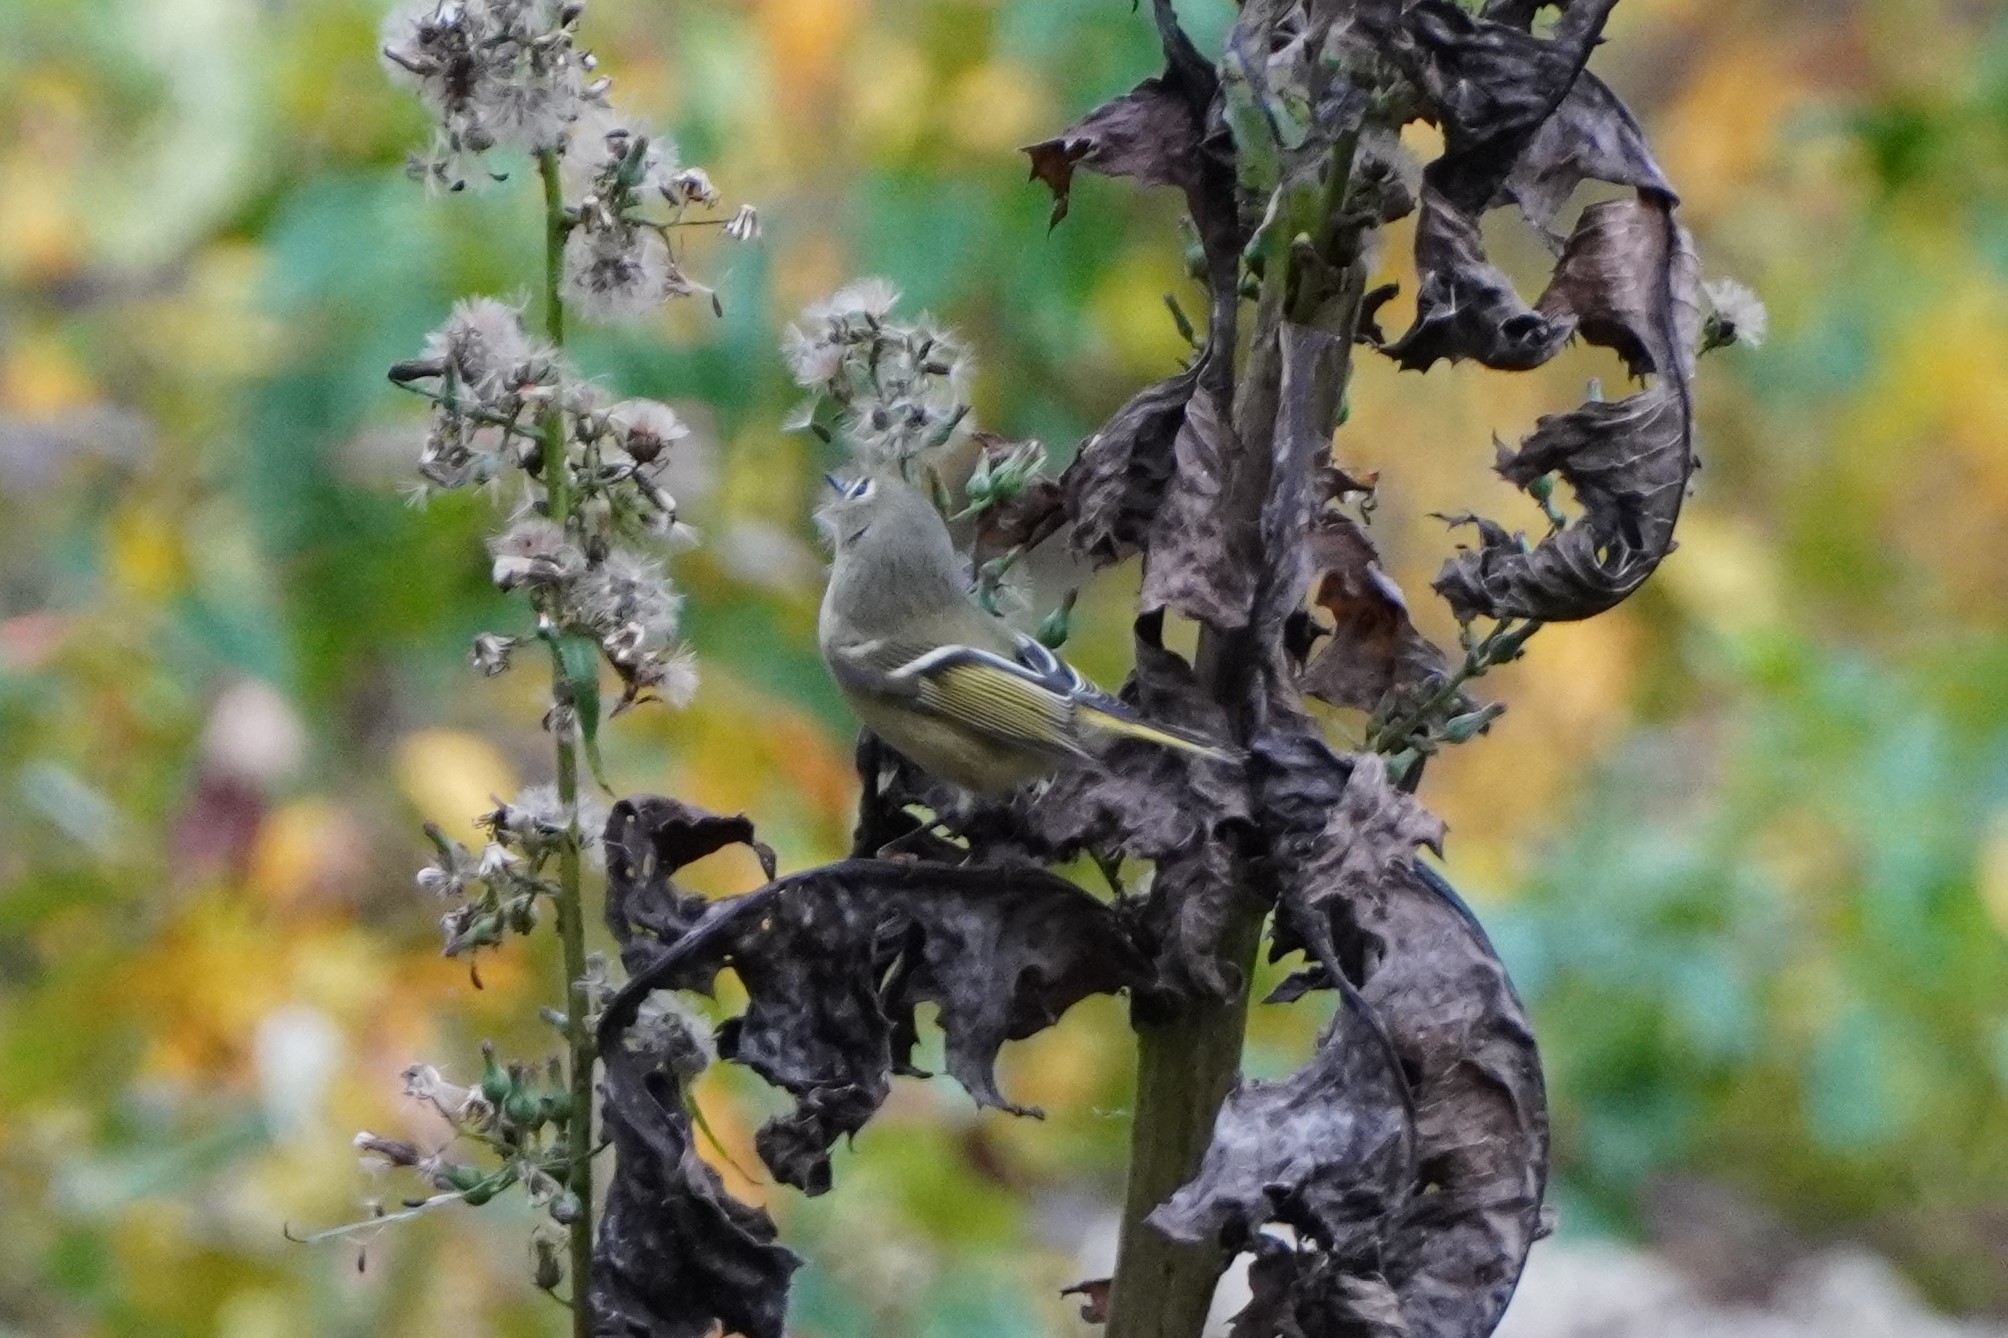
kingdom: Animalia
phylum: Chordata
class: Aves
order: Passeriformes
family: Regulidae
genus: Regulus
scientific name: Regulus calendula
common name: Ruby-crowned kinglet
